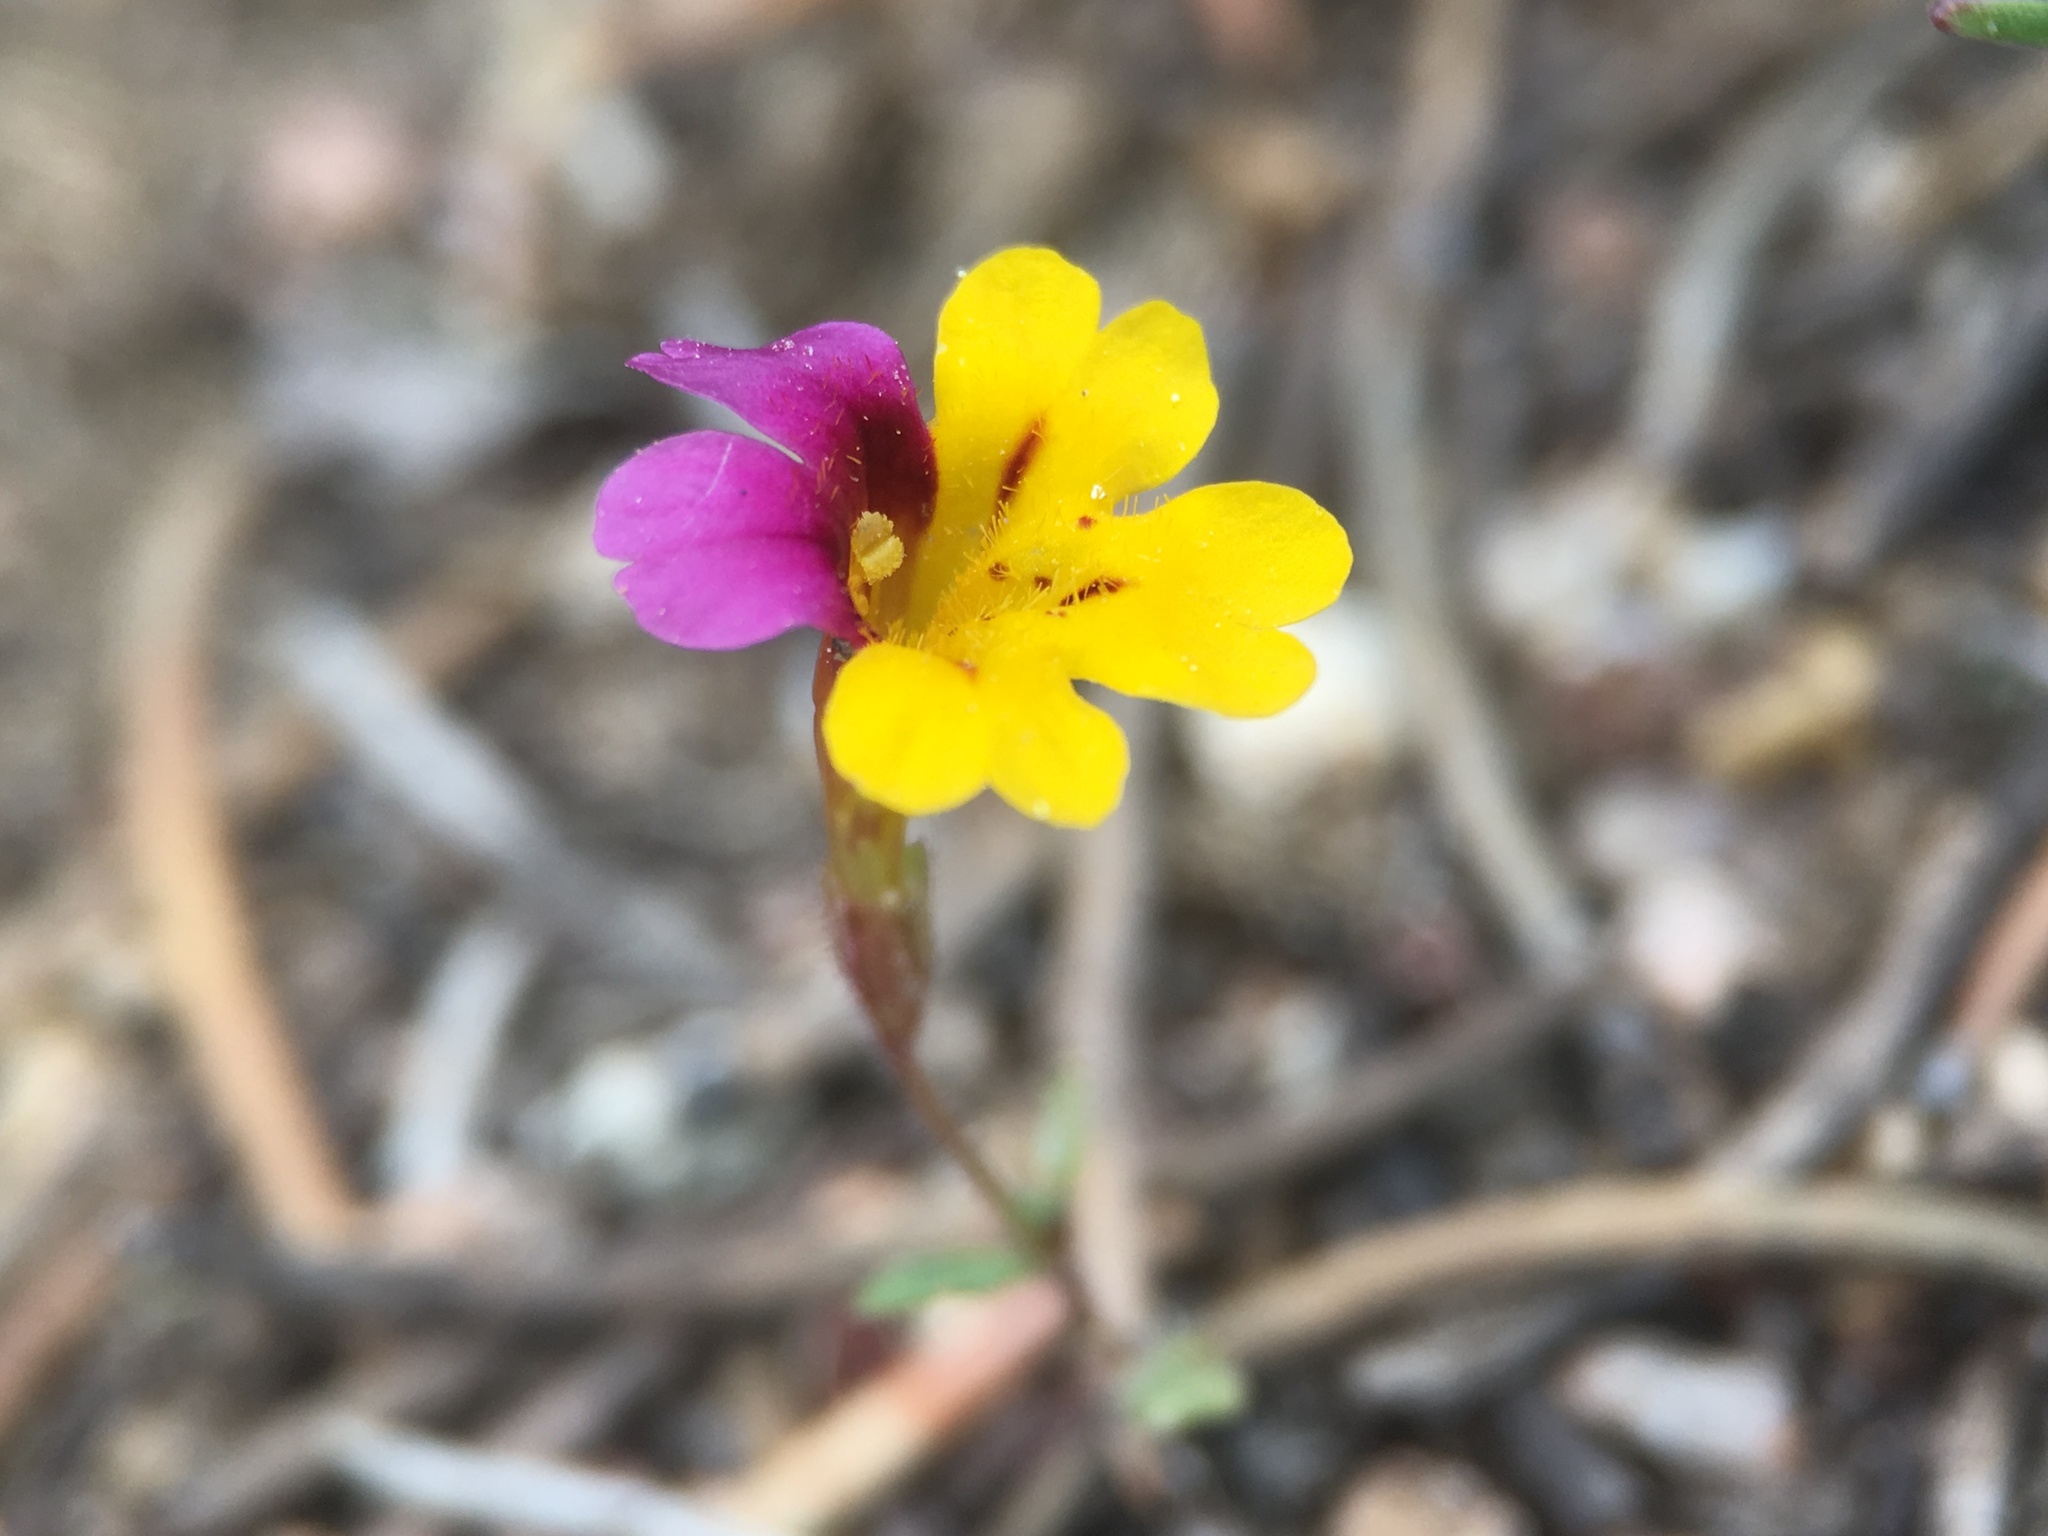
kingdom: Plantae
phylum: Tracheophyta
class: Magnoliopsida
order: Lamiales
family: Phrymaceae
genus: Erythranthe
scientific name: Erythranthe barbata
